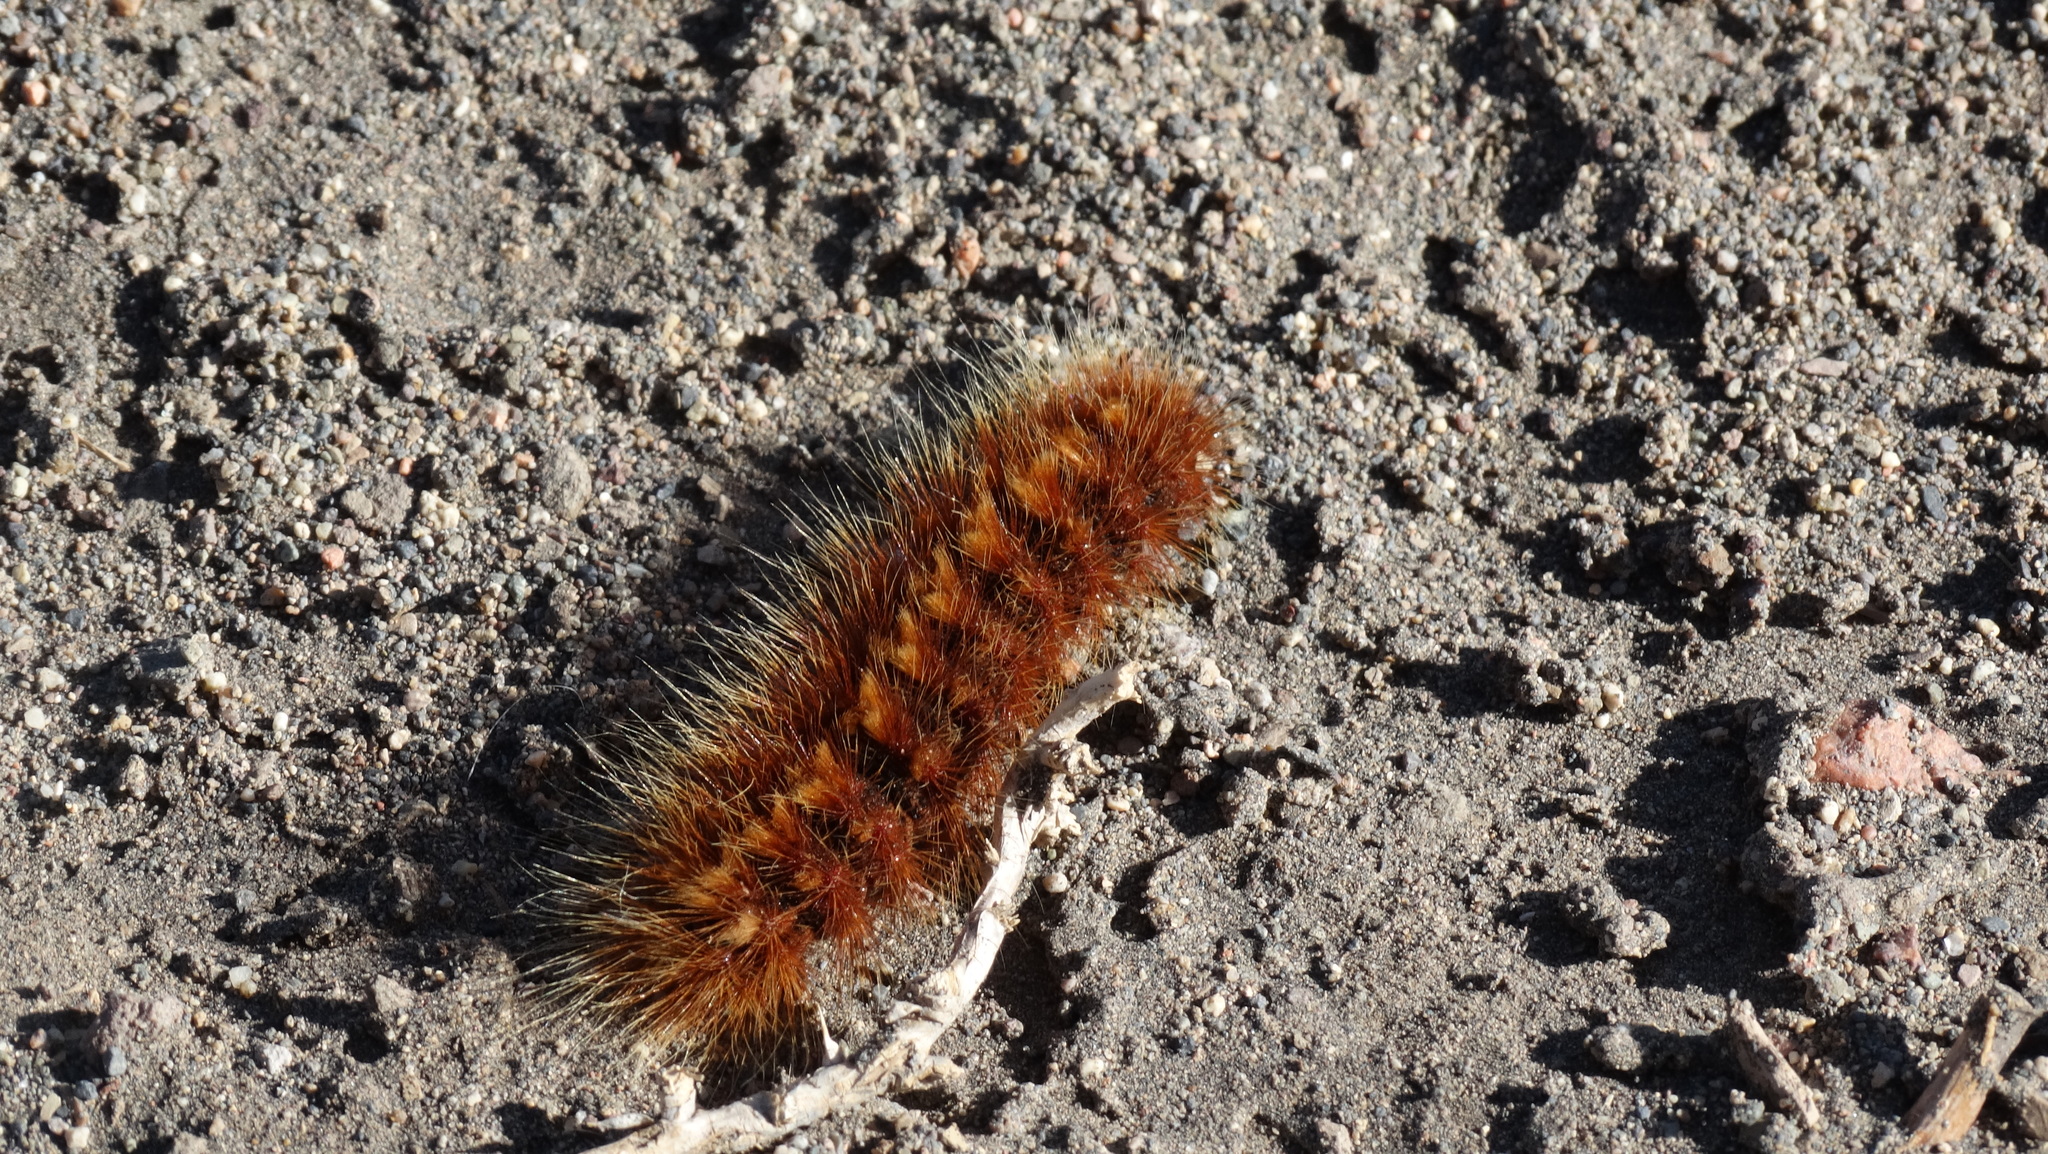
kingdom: Animalia
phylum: Arthropoda
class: Insecta
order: Lepidoptera
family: Erebidae
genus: Paracles
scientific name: Paracles severa
